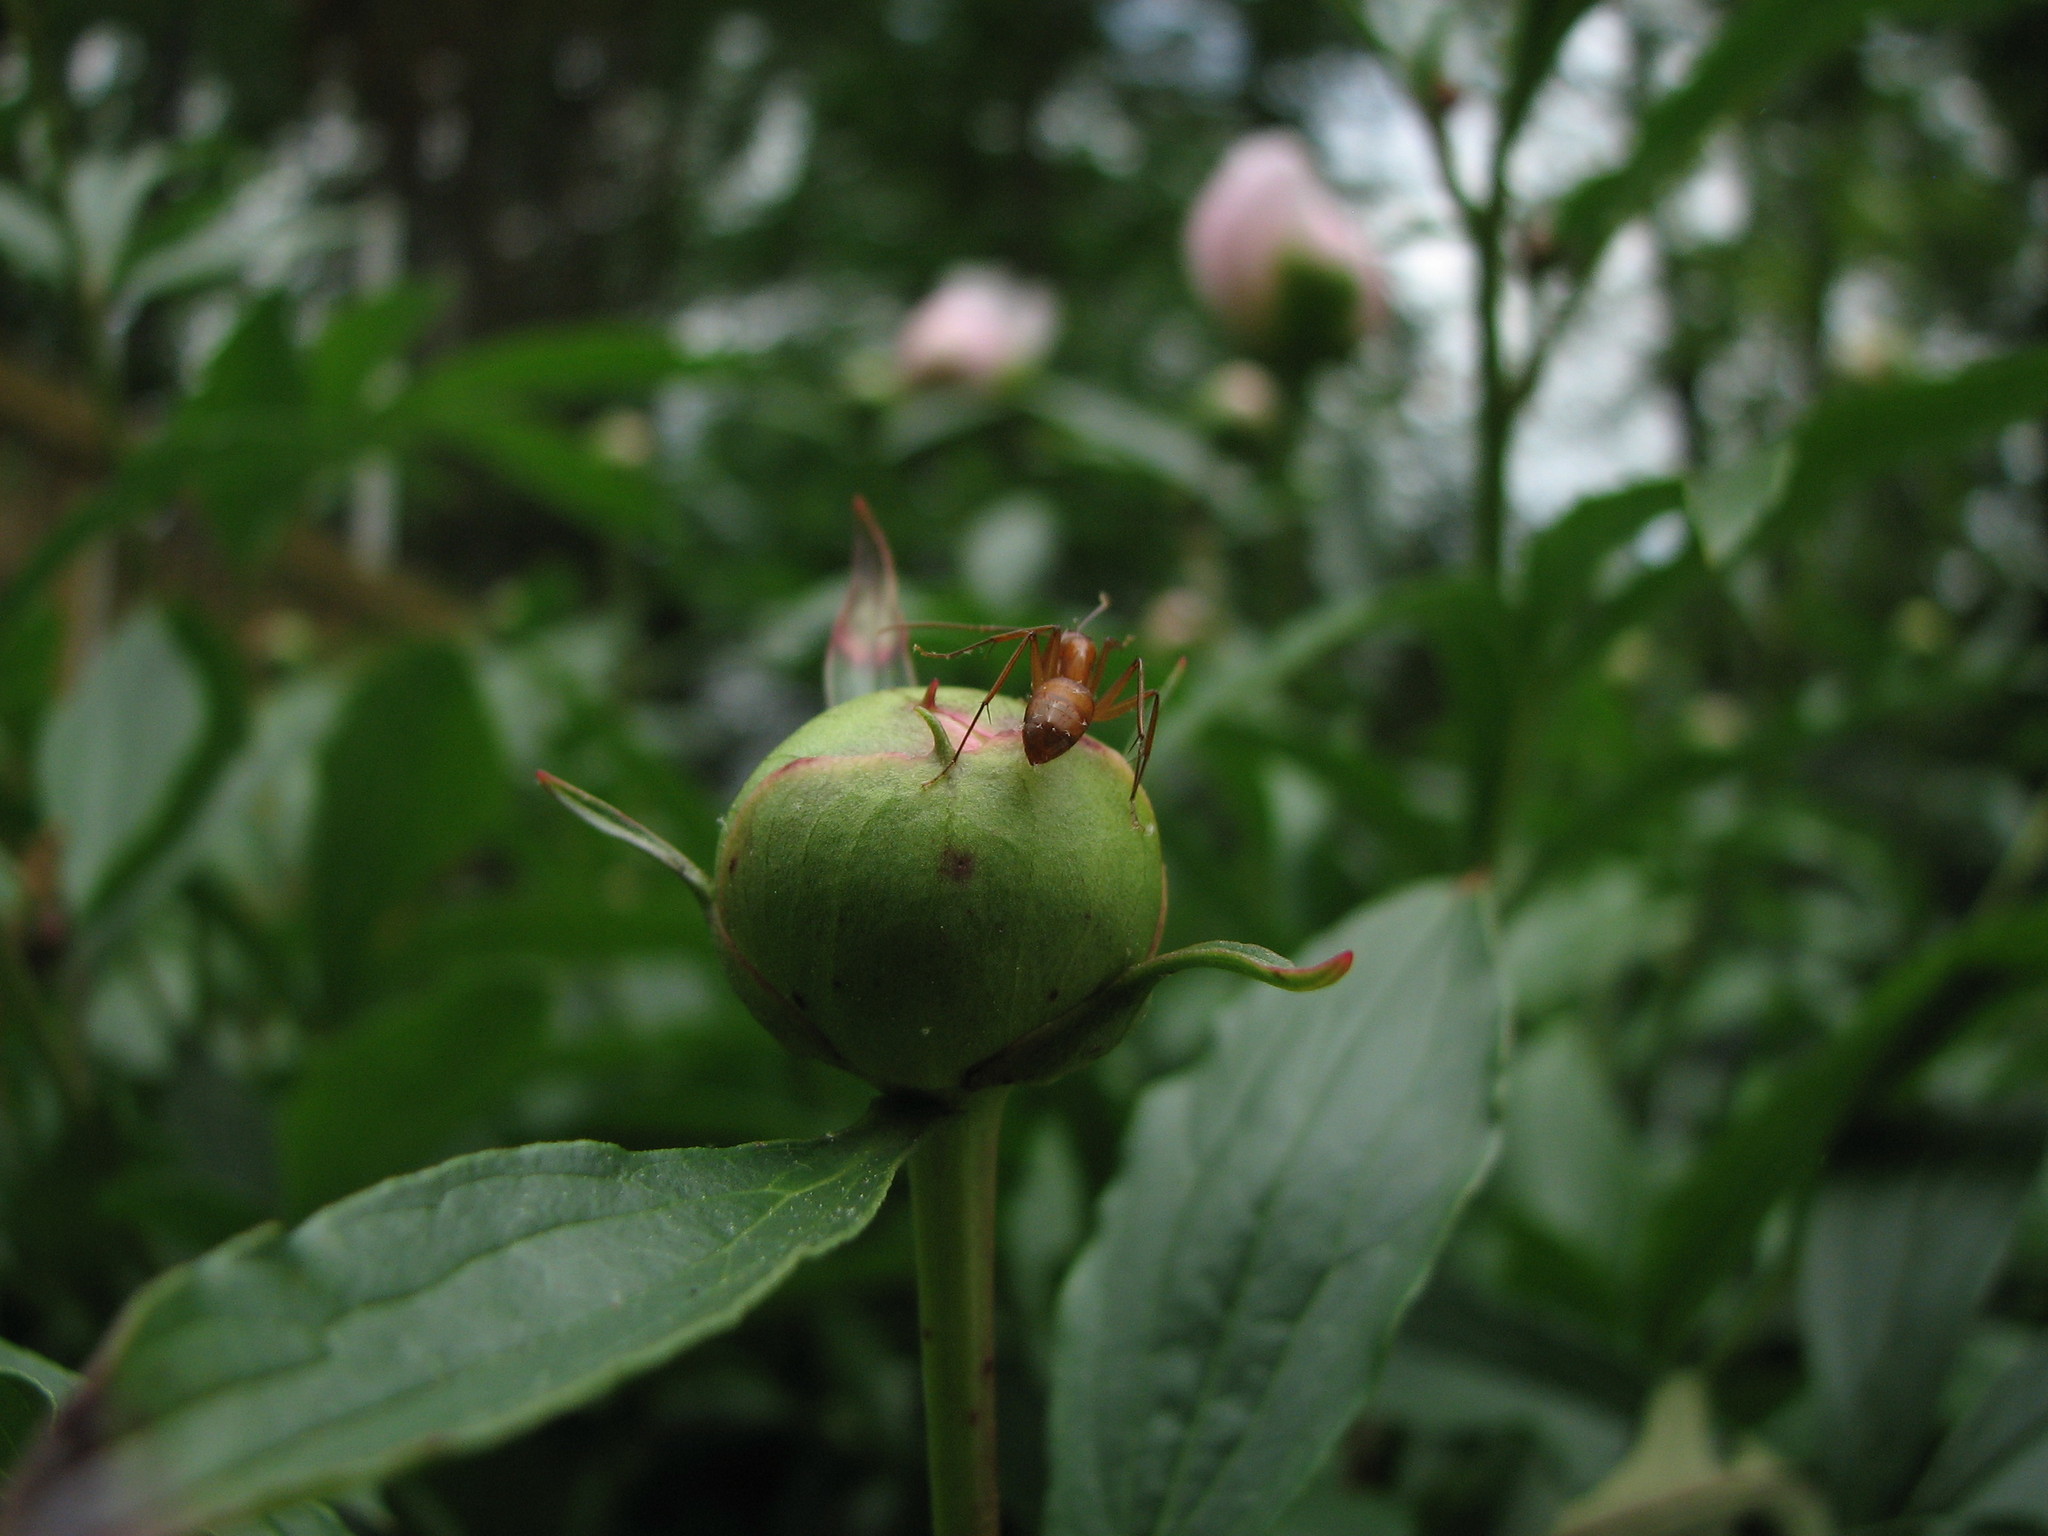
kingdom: Animalia
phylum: Arthropoda
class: Insecta
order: Hymenoptera
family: Formicidae
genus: Camponotus
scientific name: Camponotus castaneus
